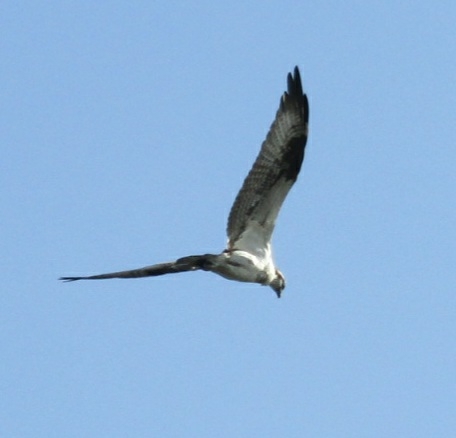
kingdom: Animalia
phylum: Chordata
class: Aves
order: Accipitriformes
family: Pandionidae
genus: Pandion
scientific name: Pandion haliaetus
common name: Osprey
